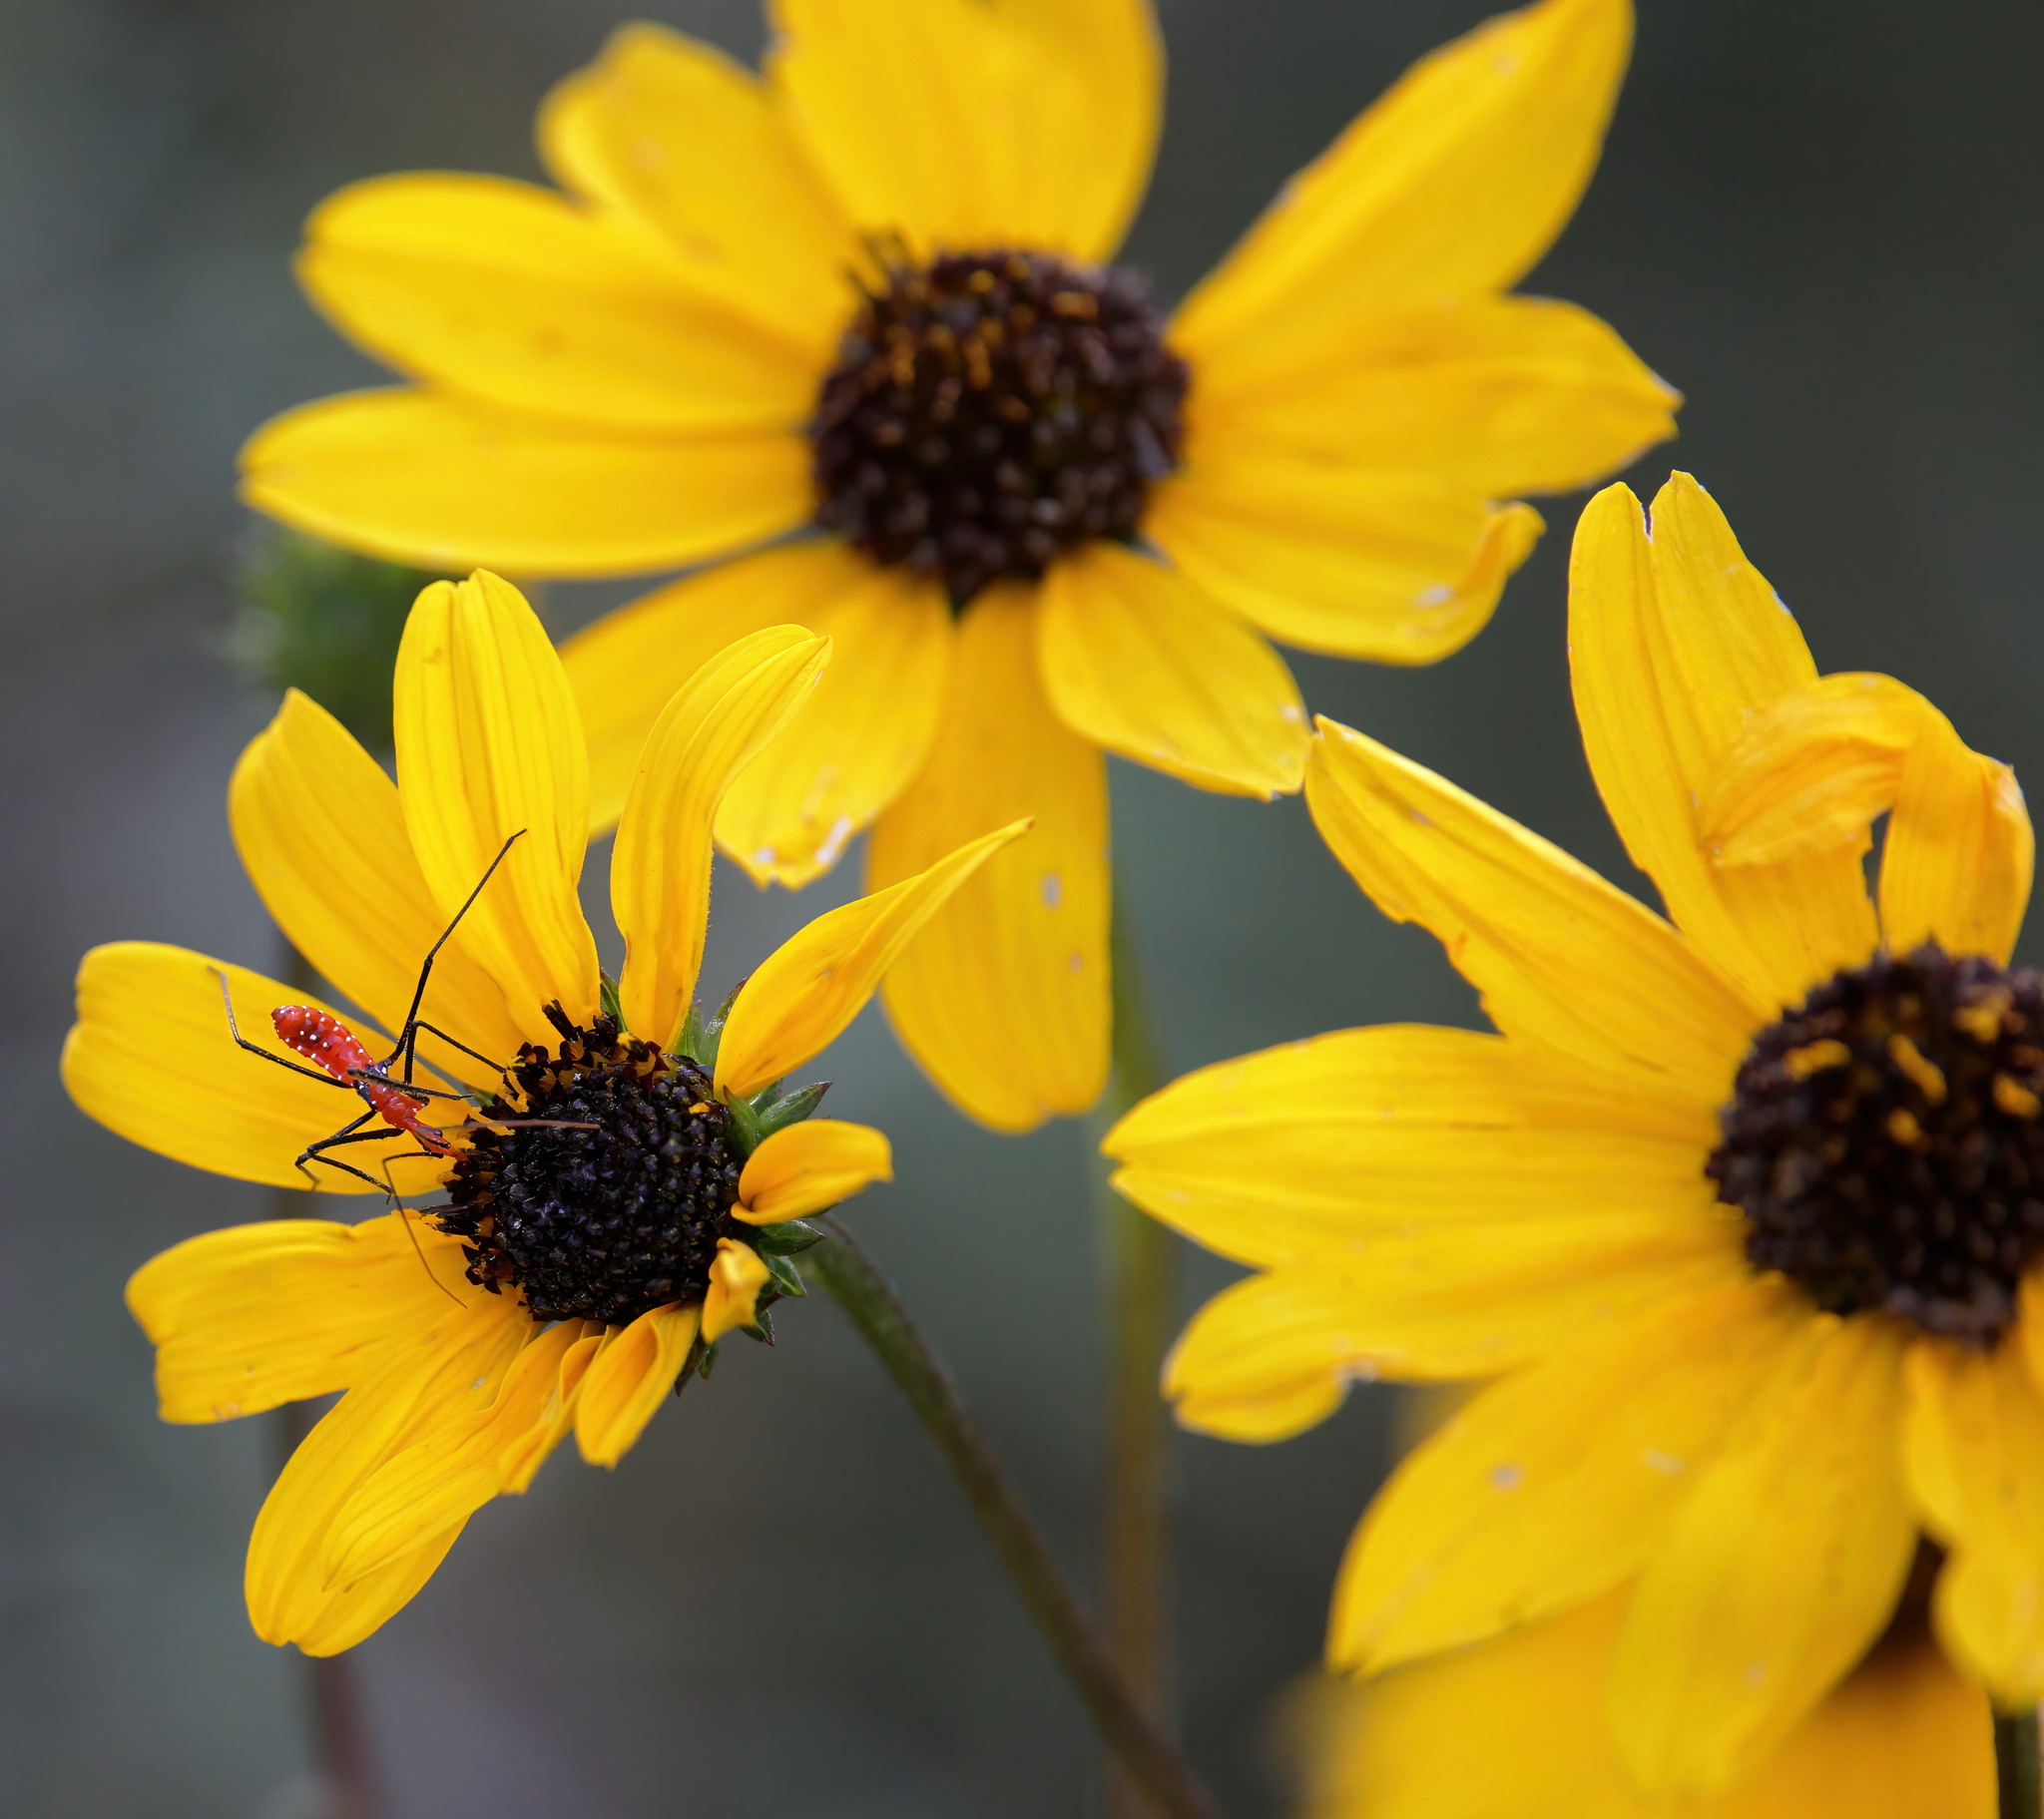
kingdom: Animalia
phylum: Arthropoda
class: Insecta
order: Hemiptera
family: Reduviidae
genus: Zelus
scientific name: Zelus longipes
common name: Milkweed assassin bug
